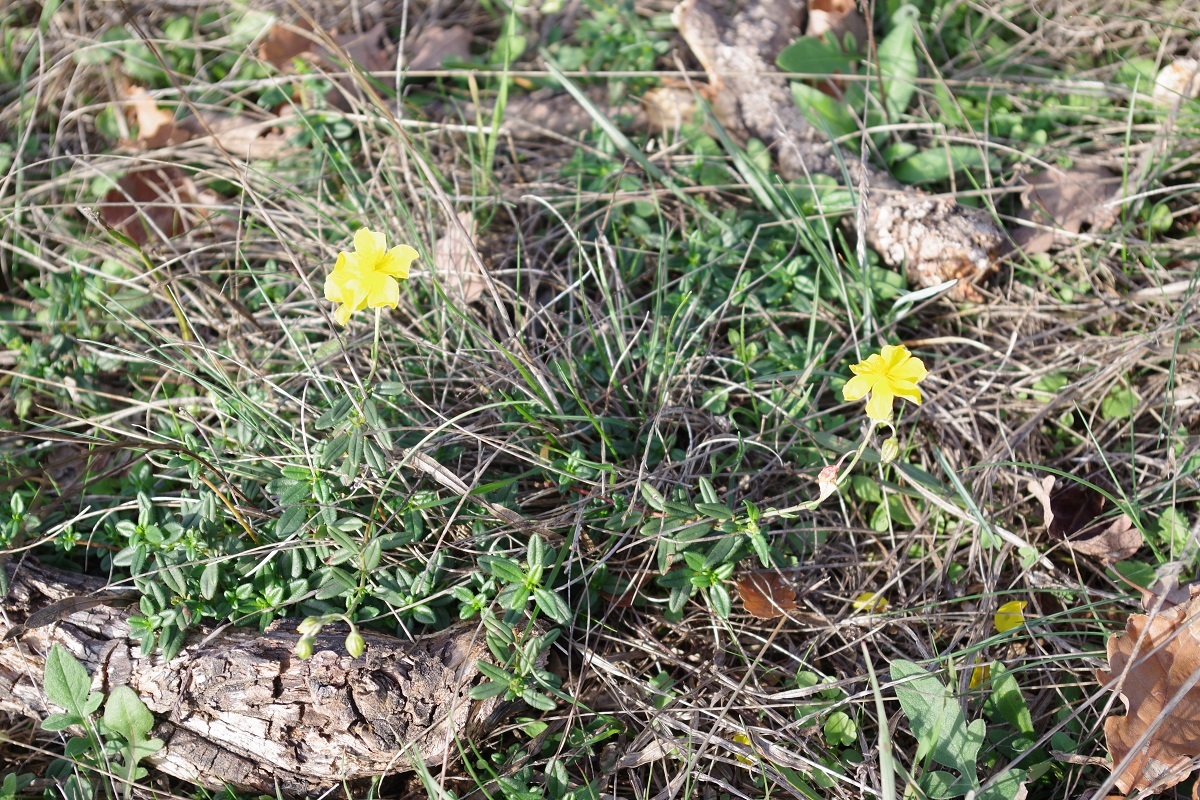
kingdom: Plantae
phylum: Tracheophyta
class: Magnoliopsida
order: Malvales
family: Cistaceae
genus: Helianthemum
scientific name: Helianthemum nummularium
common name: Common rock-rose
